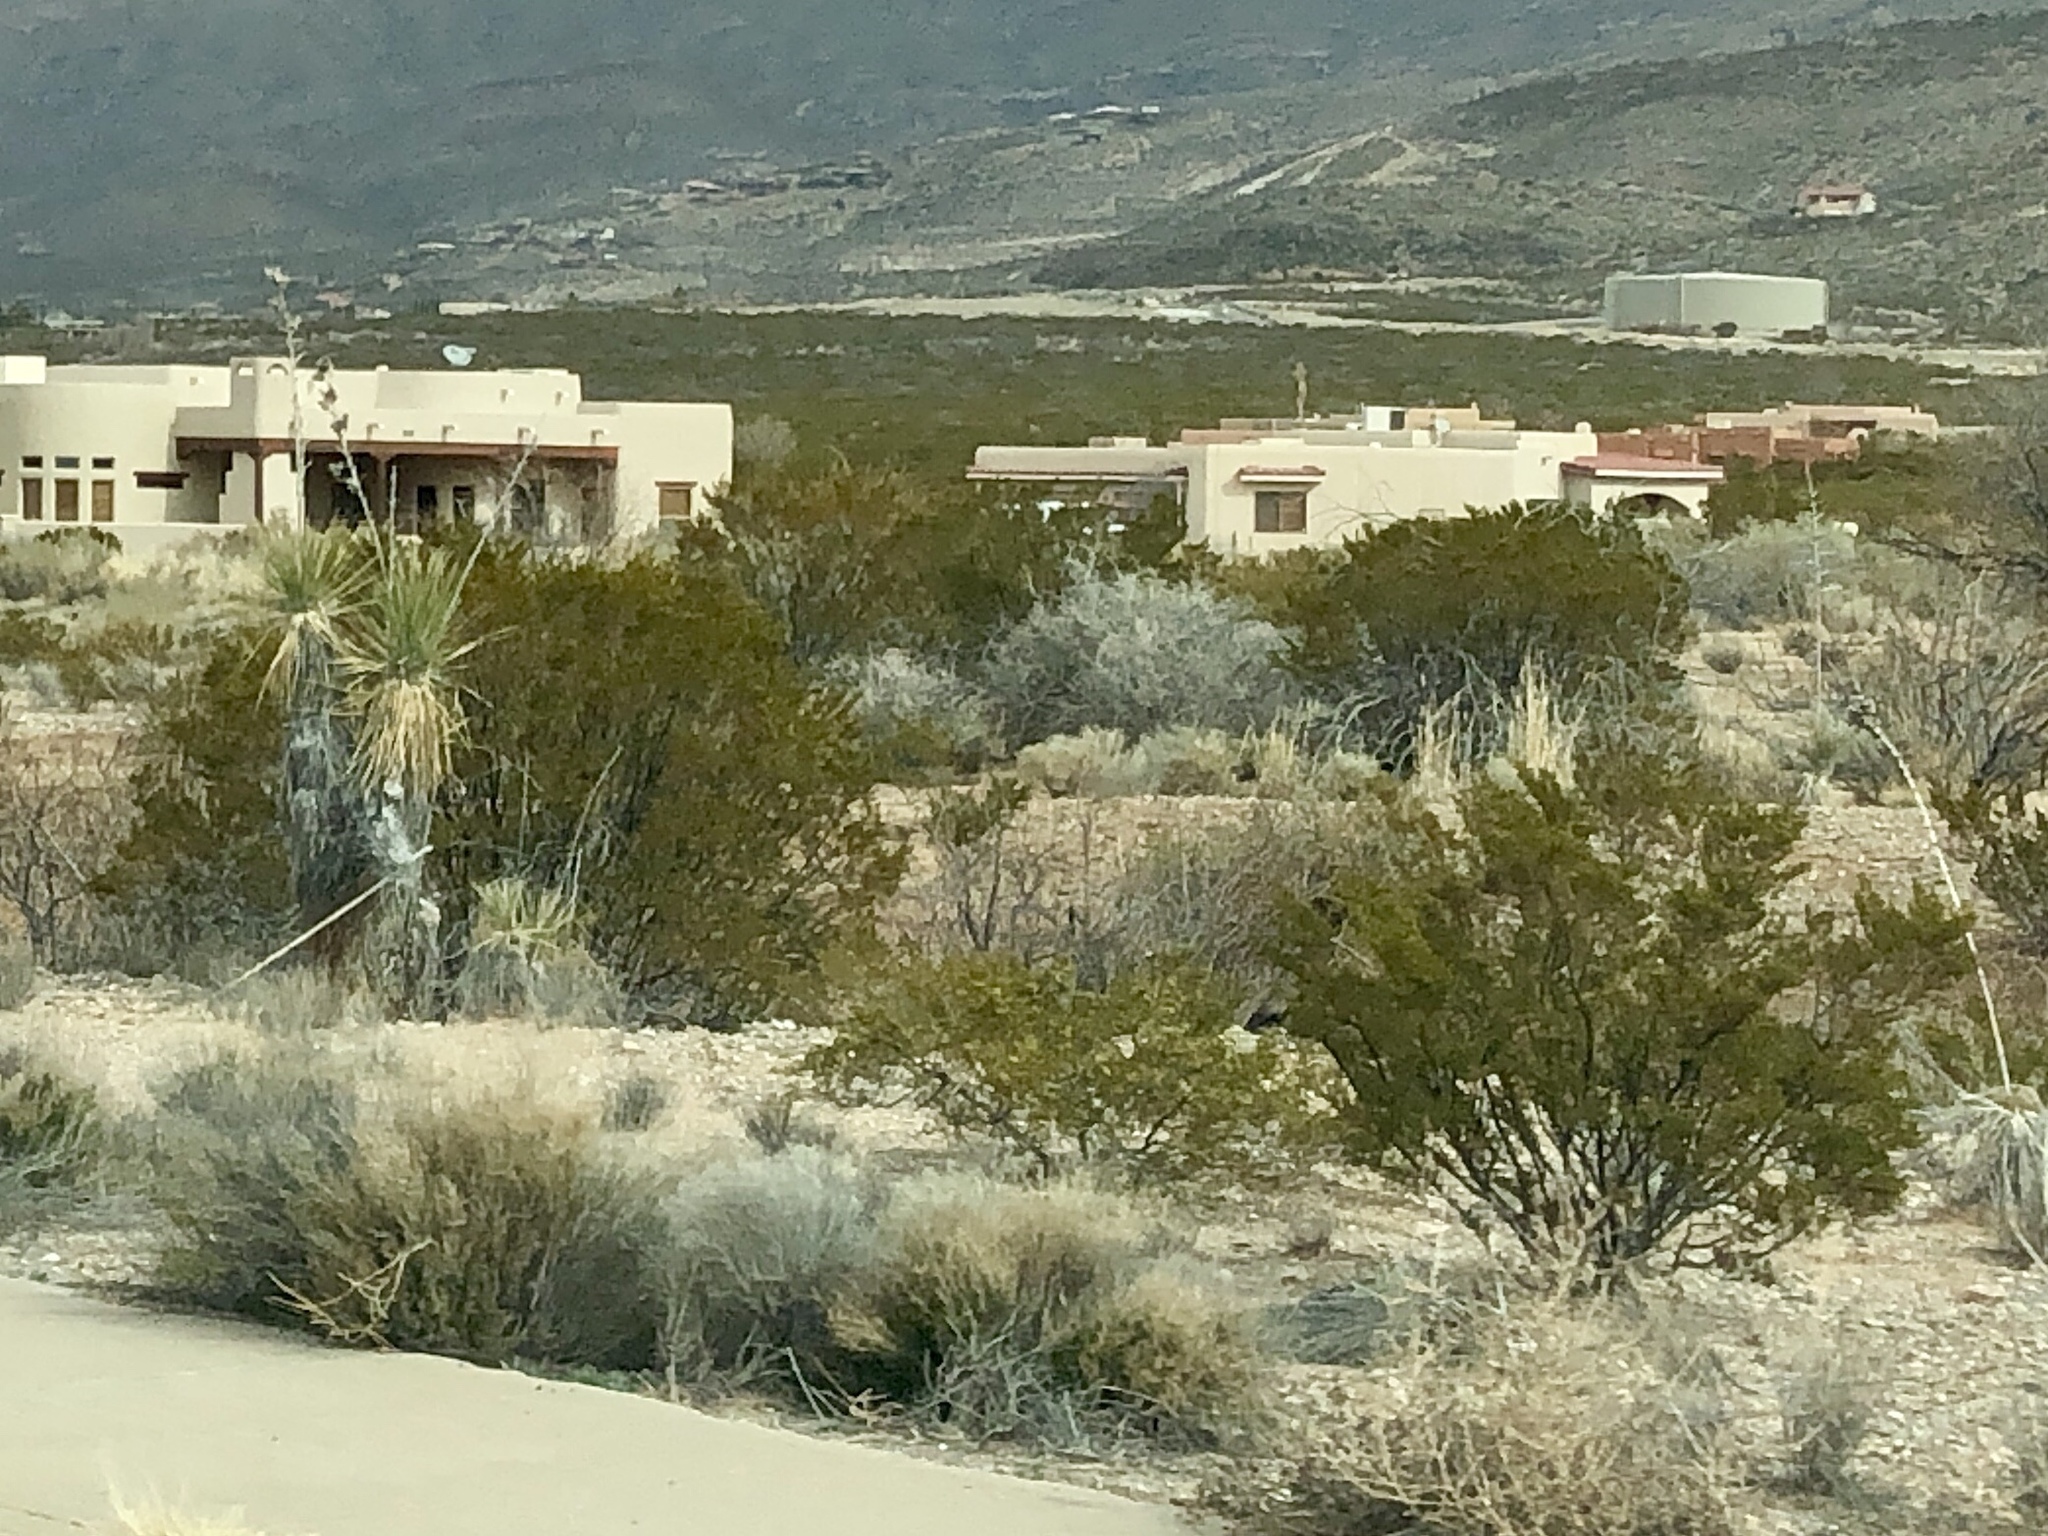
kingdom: Plantae
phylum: Tracheophyta
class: Magnoliopsida
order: Zygophyllales
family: Zygophyllaceae
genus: Larrea
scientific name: Larrea tridentata
